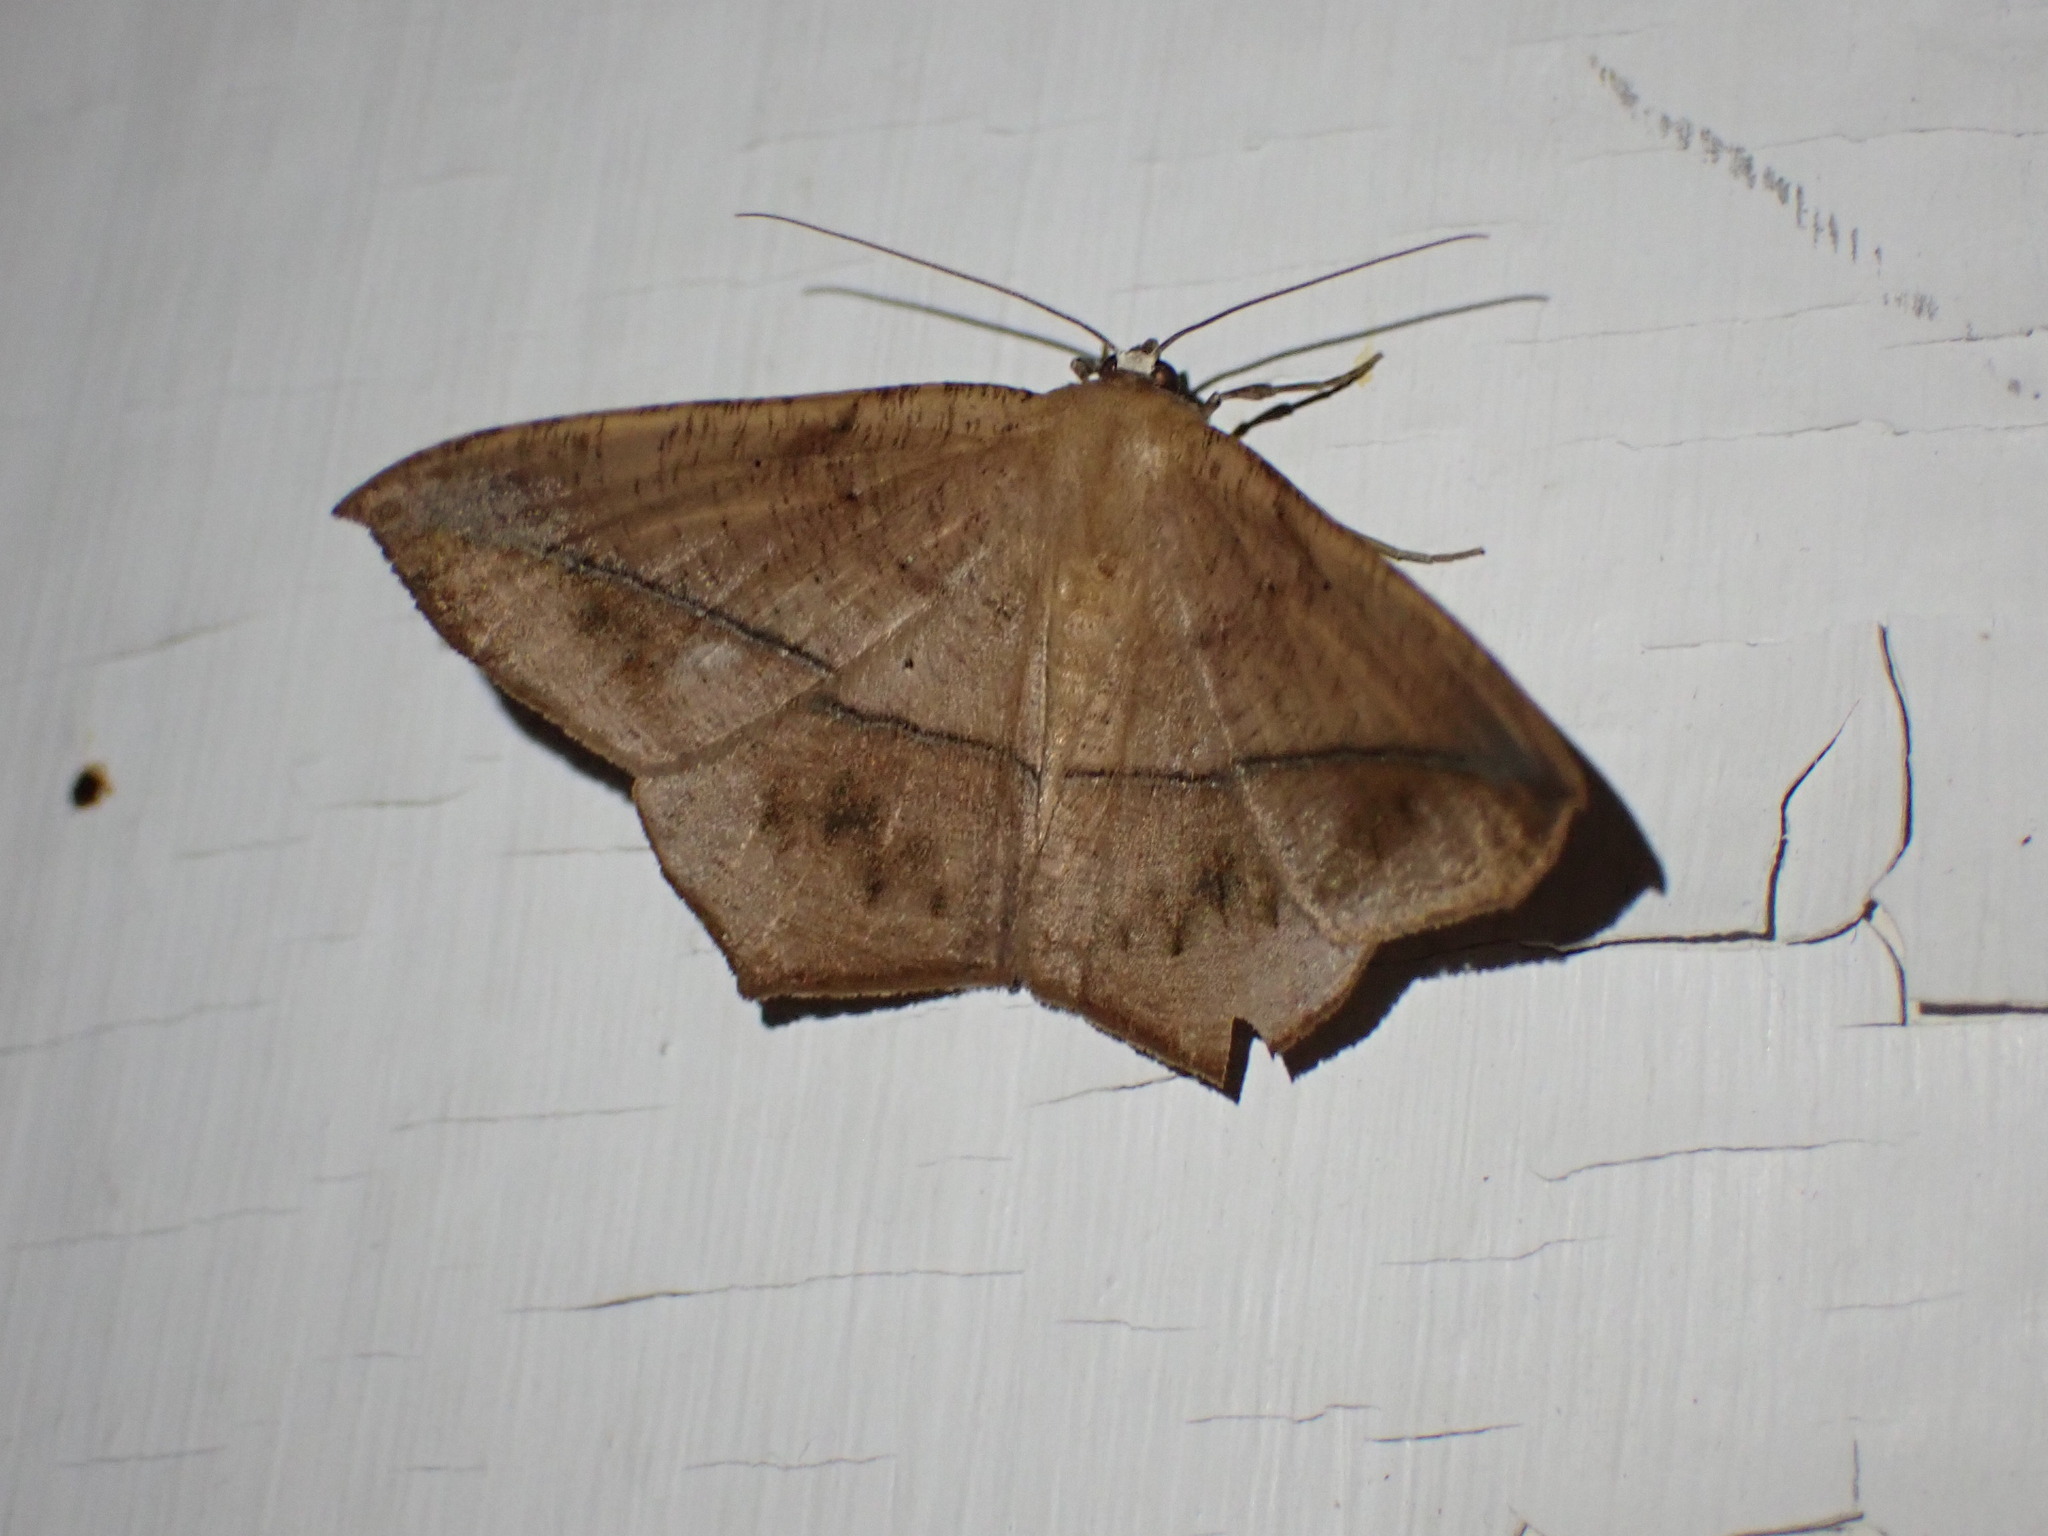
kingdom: Animalia
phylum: Arthropoda
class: Insecta
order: Lepidoptera
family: Geometridae
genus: Prochoerodes
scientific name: Prochoerodes lineola
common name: Large maple spanworm
